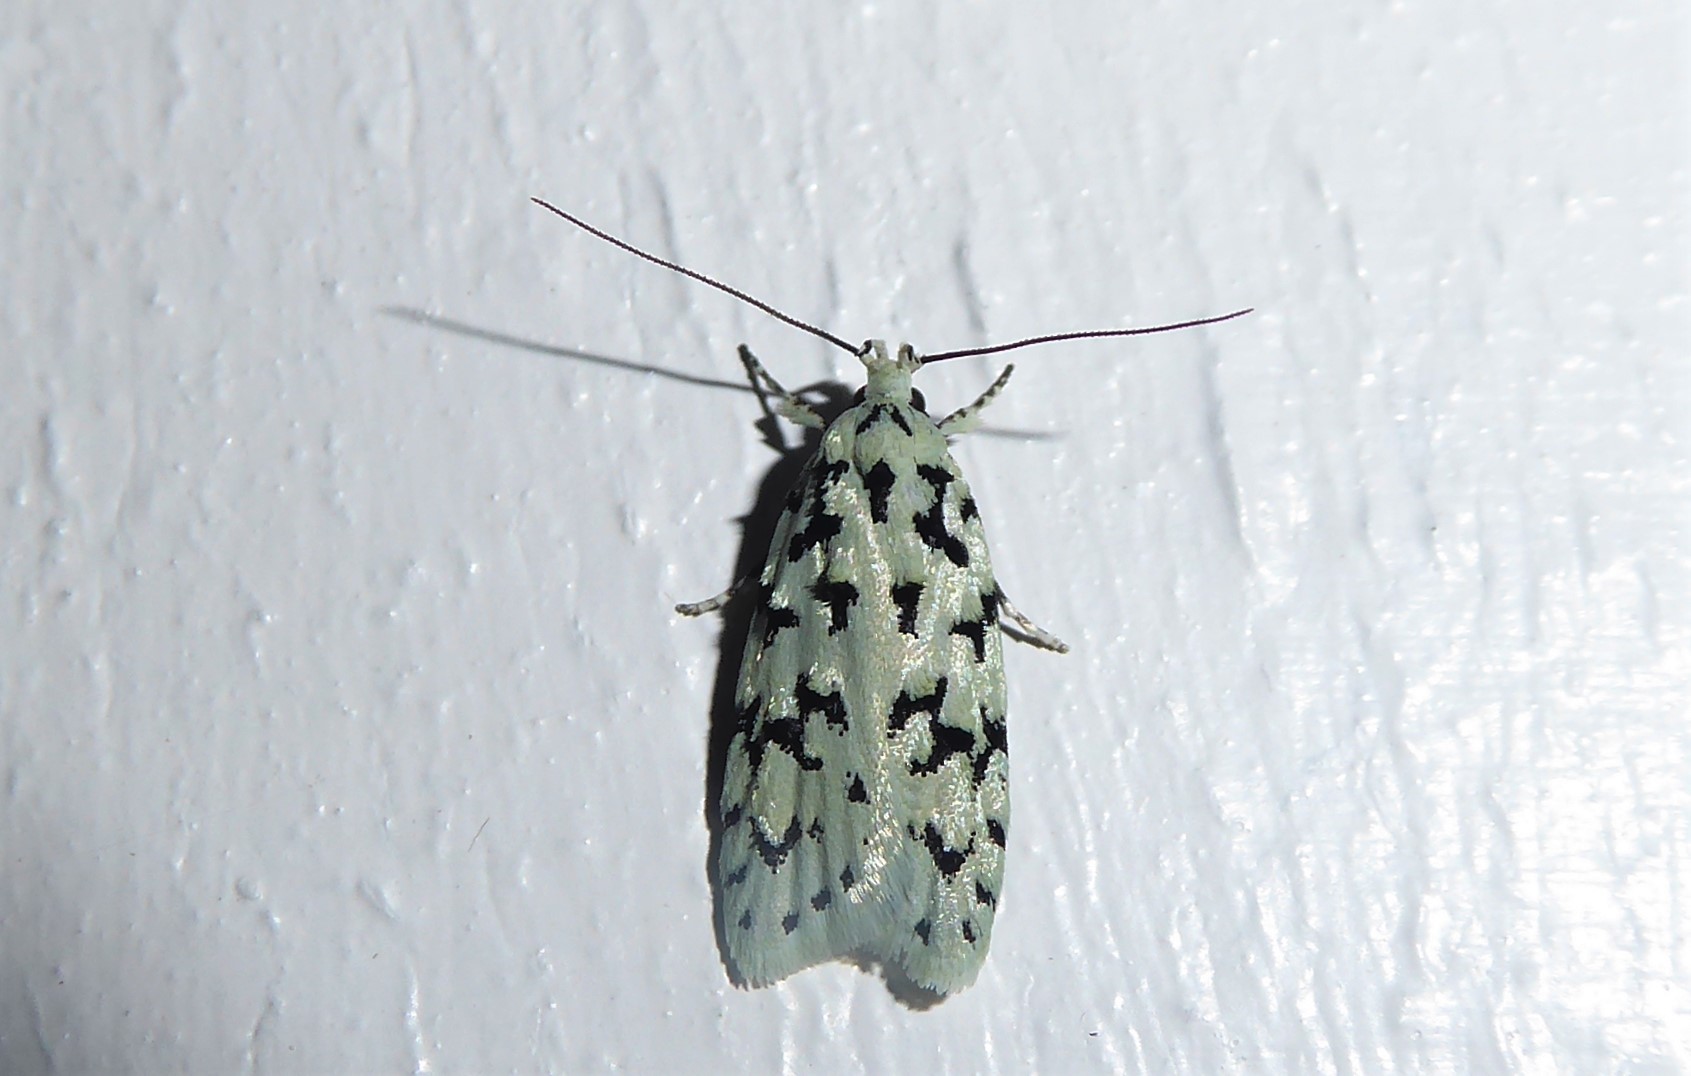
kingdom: Animalia
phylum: Arthropoda
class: Insecta
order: Lepidoptera
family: Oecophoridae
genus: Izatha
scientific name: Izatha huttoni
